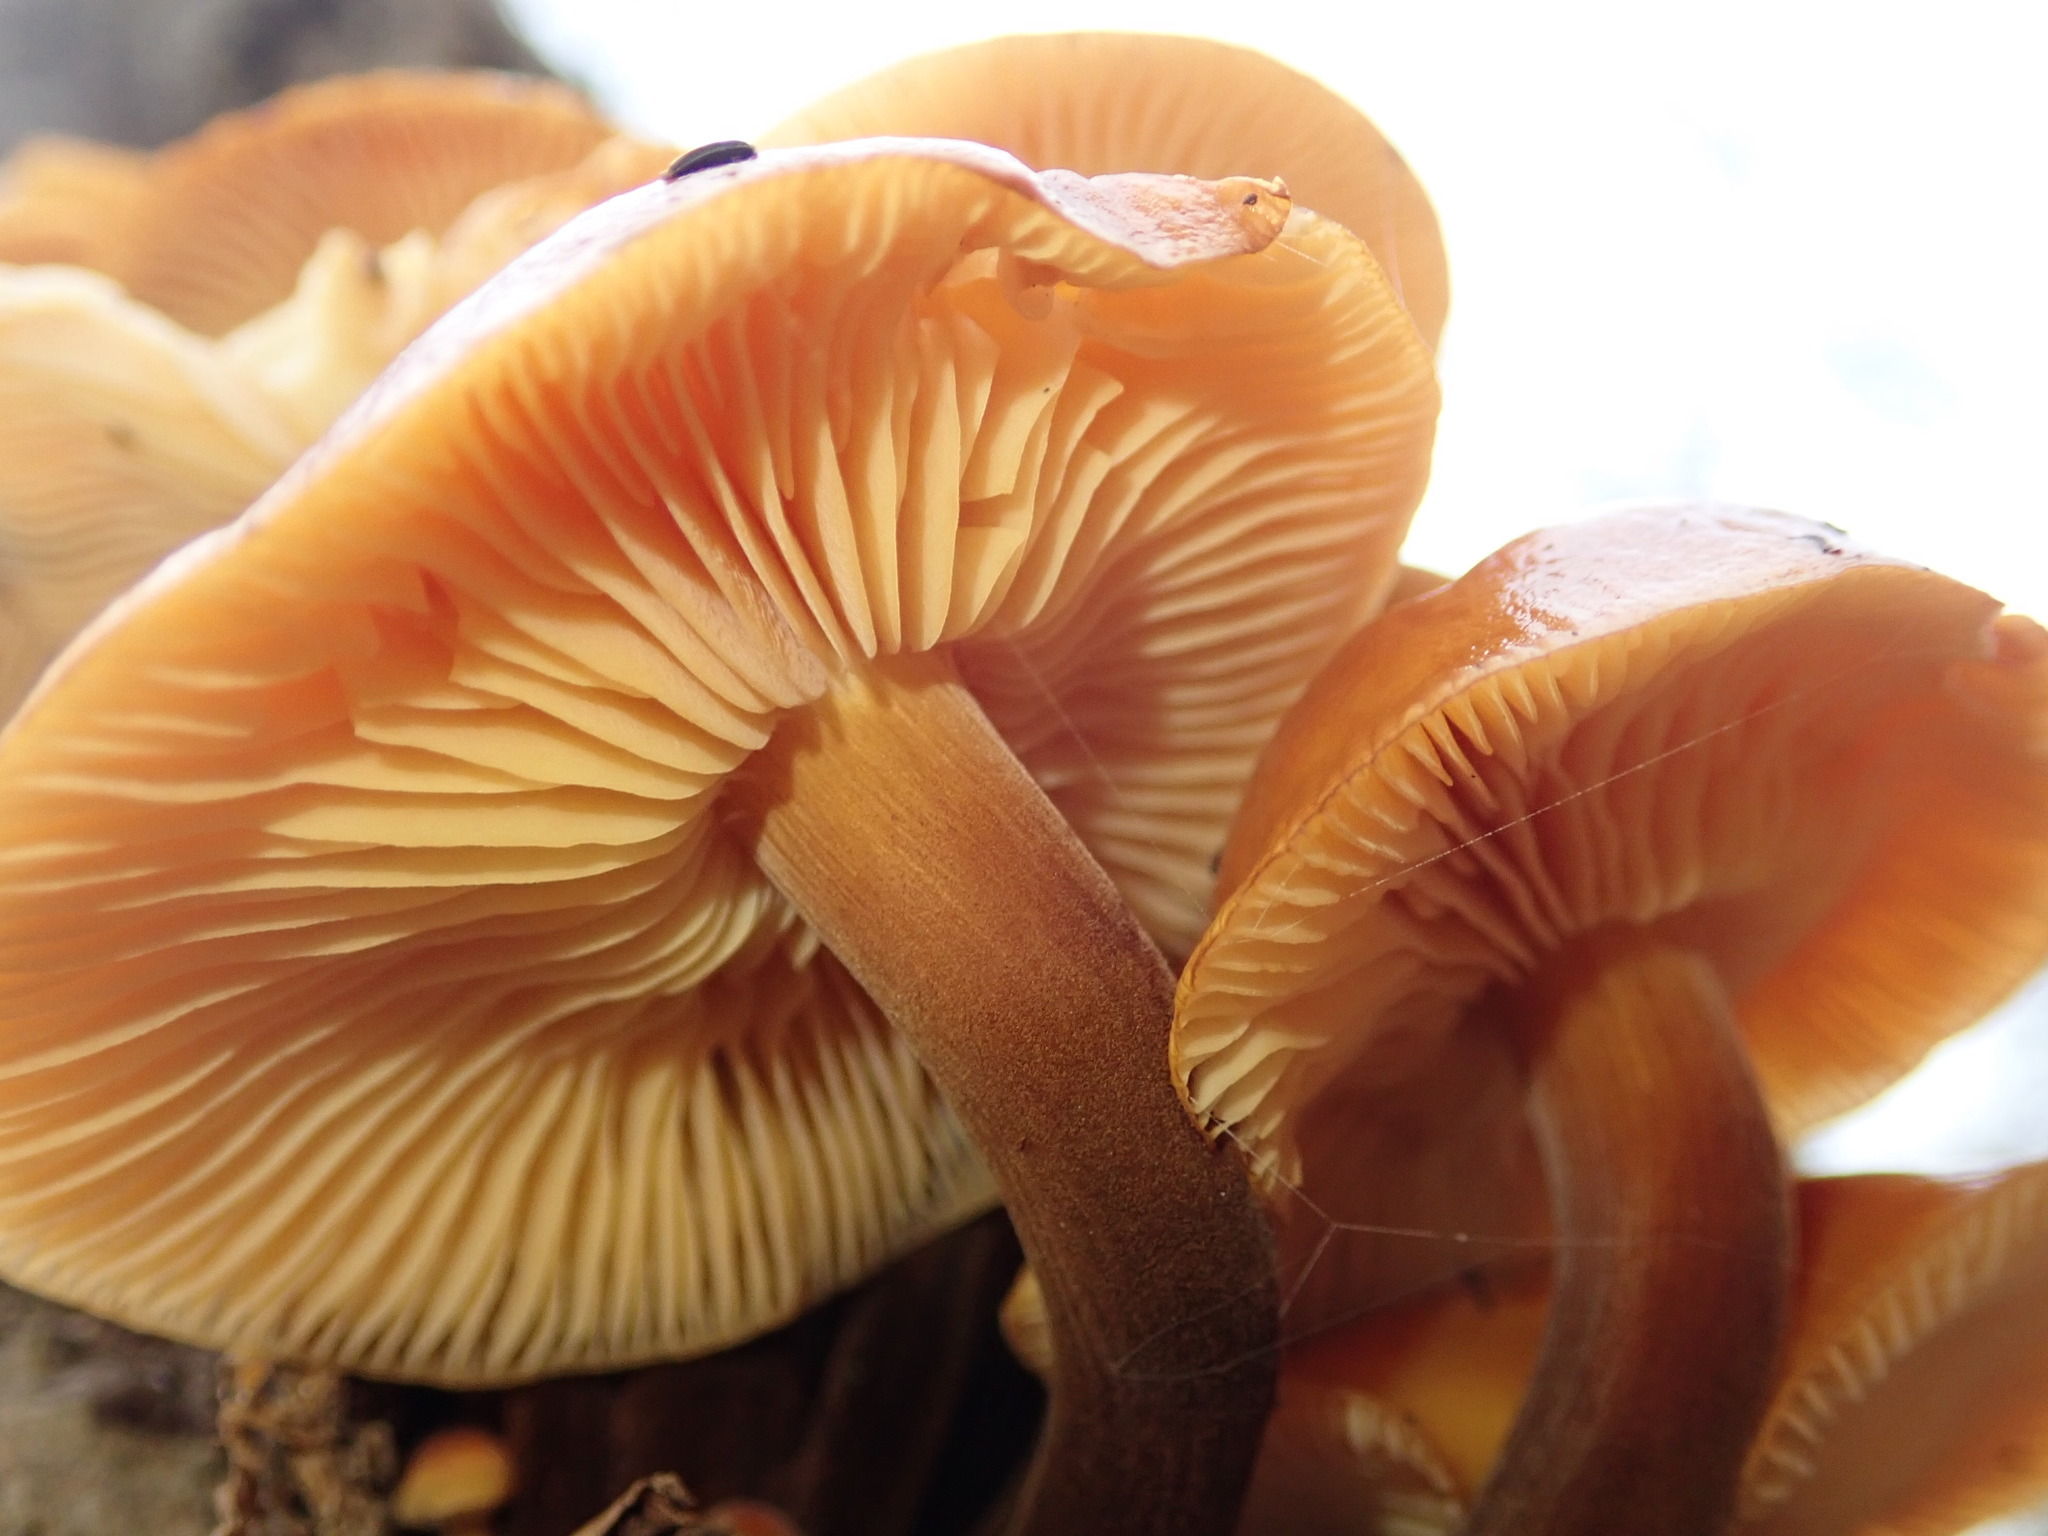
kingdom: Fungi
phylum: Basidiomycota
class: Agaricomycetes
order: Agaricales
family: Physalacriaceae
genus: Flammulina
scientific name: Flammulina velutipes
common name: Velvet shank
